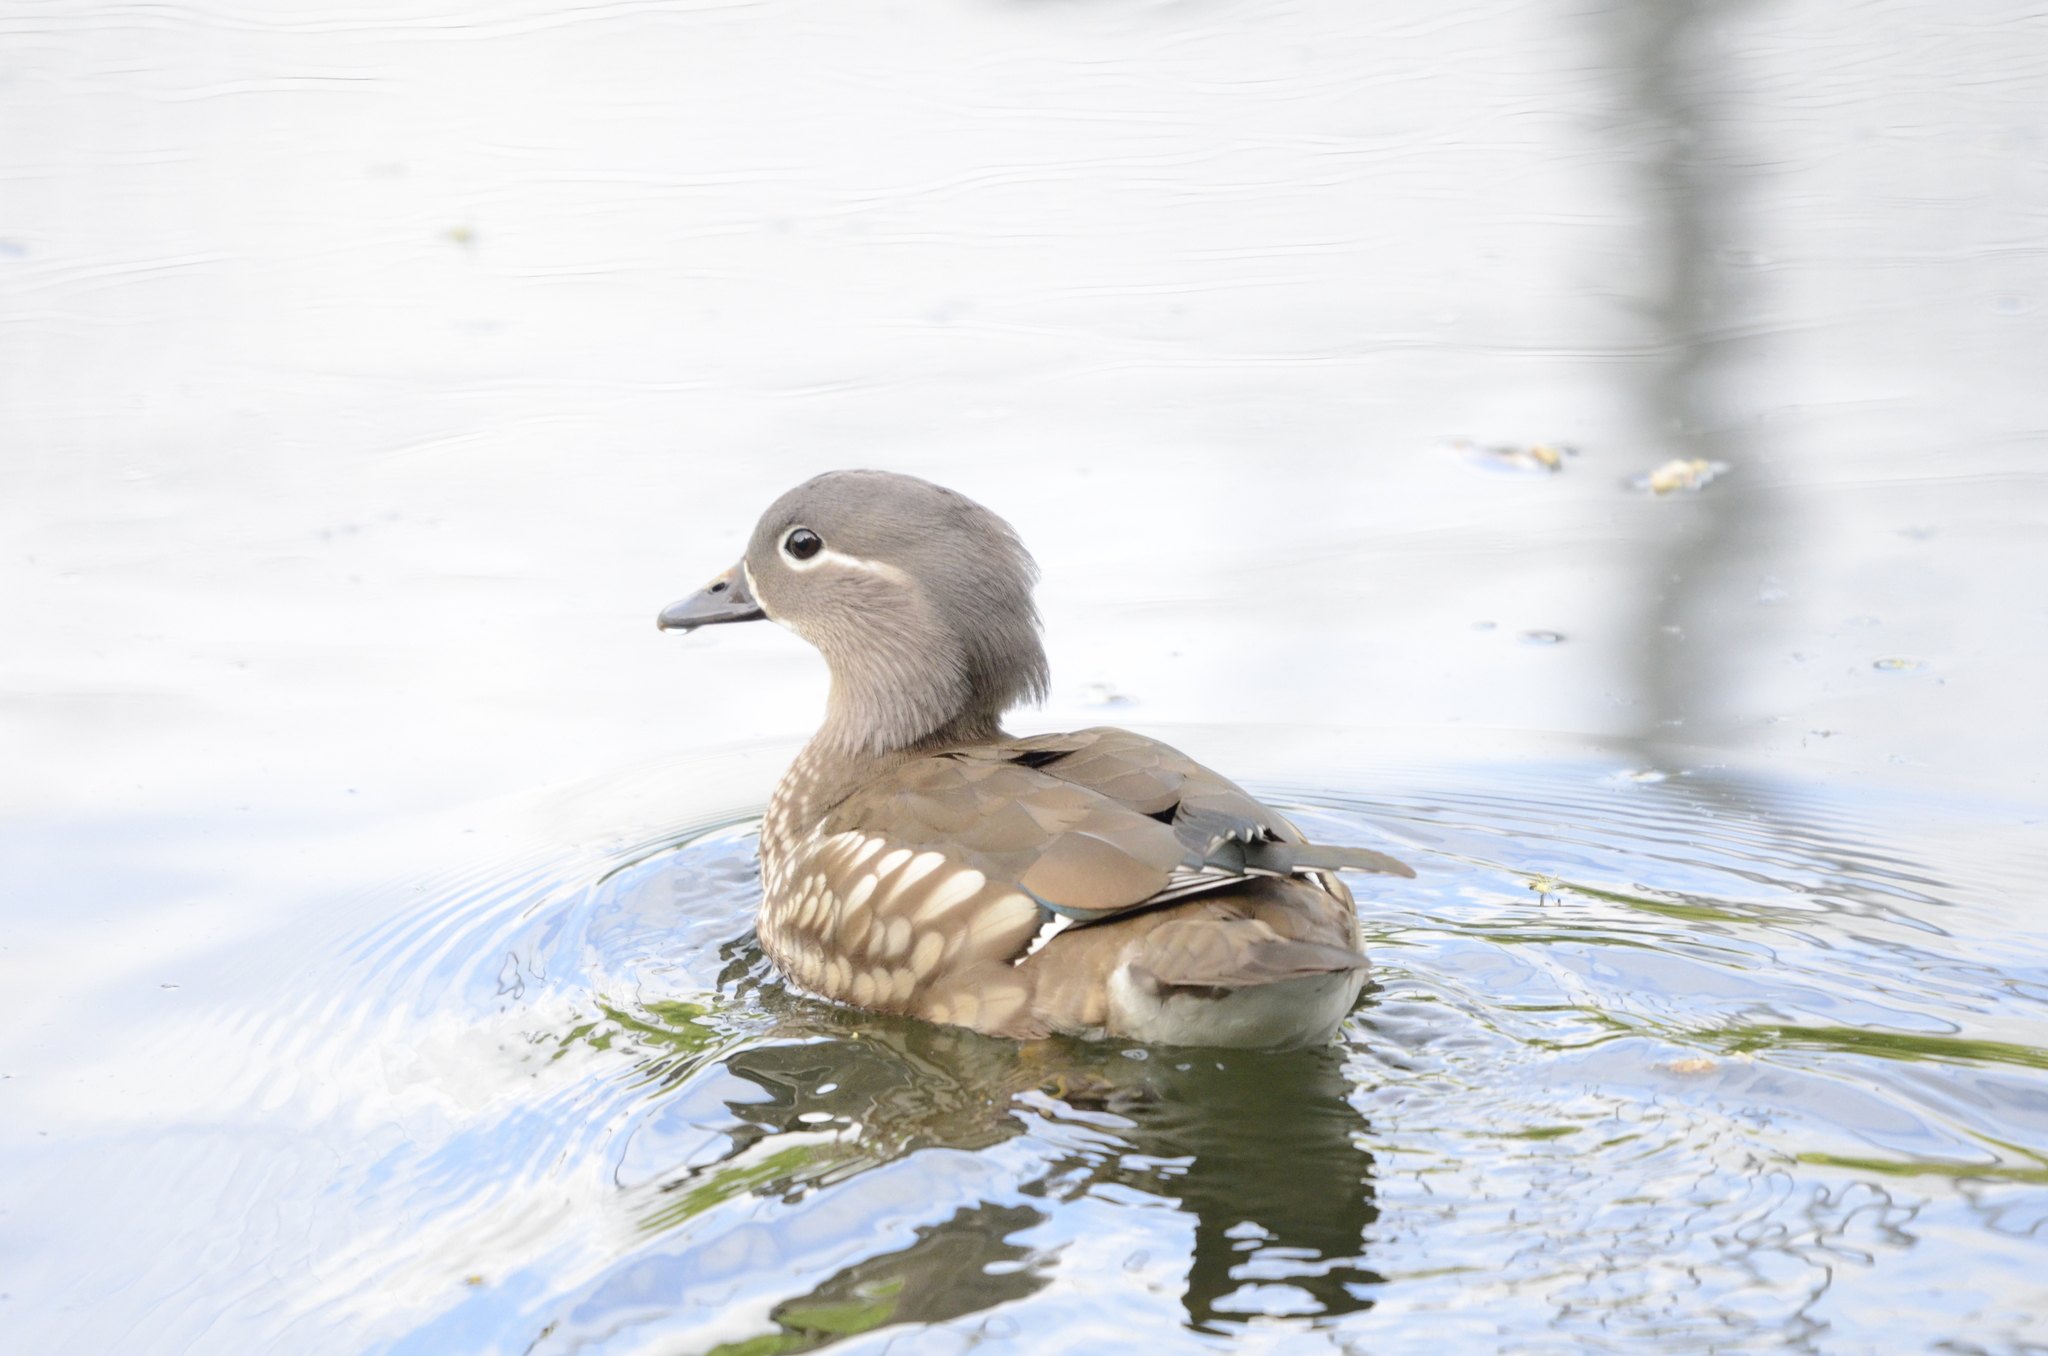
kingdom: Animalia
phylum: Chordata
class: Aves
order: Anseriformes
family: Anatidae
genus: Aix
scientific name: Aix galericulata
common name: Mandarin duck
